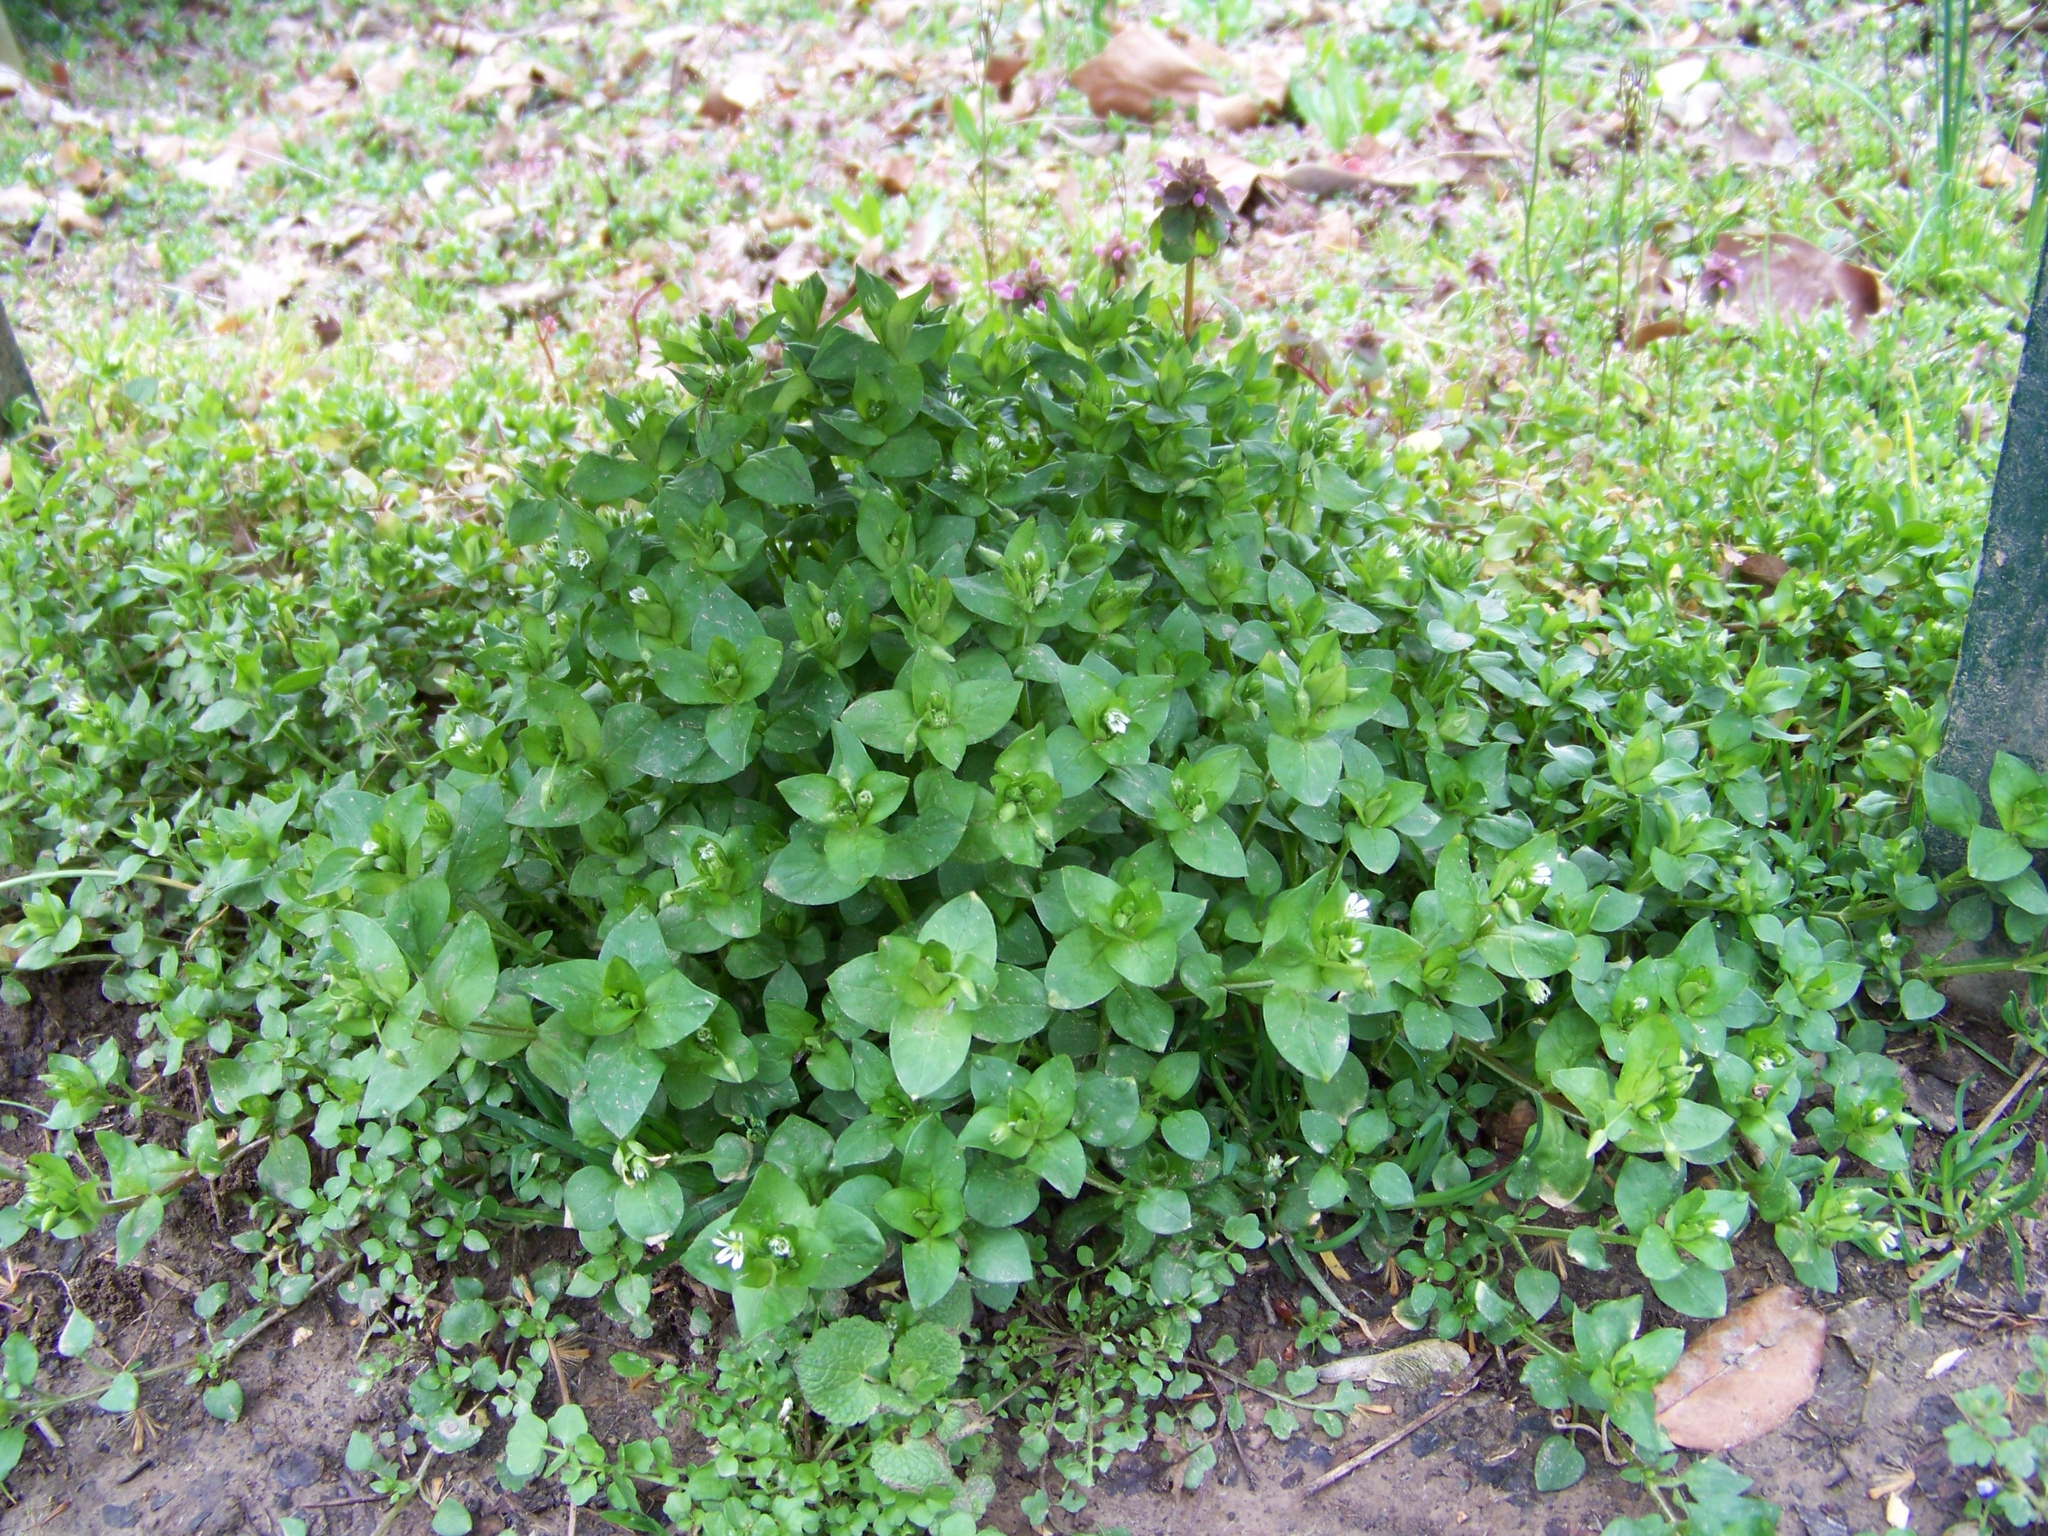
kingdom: Plantae
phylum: Tracheophyta
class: Magnoliopsida
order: Caryophyllales
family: Caryophyllaceae
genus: Stellaria
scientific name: Stellaria media
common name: Common chickweed
